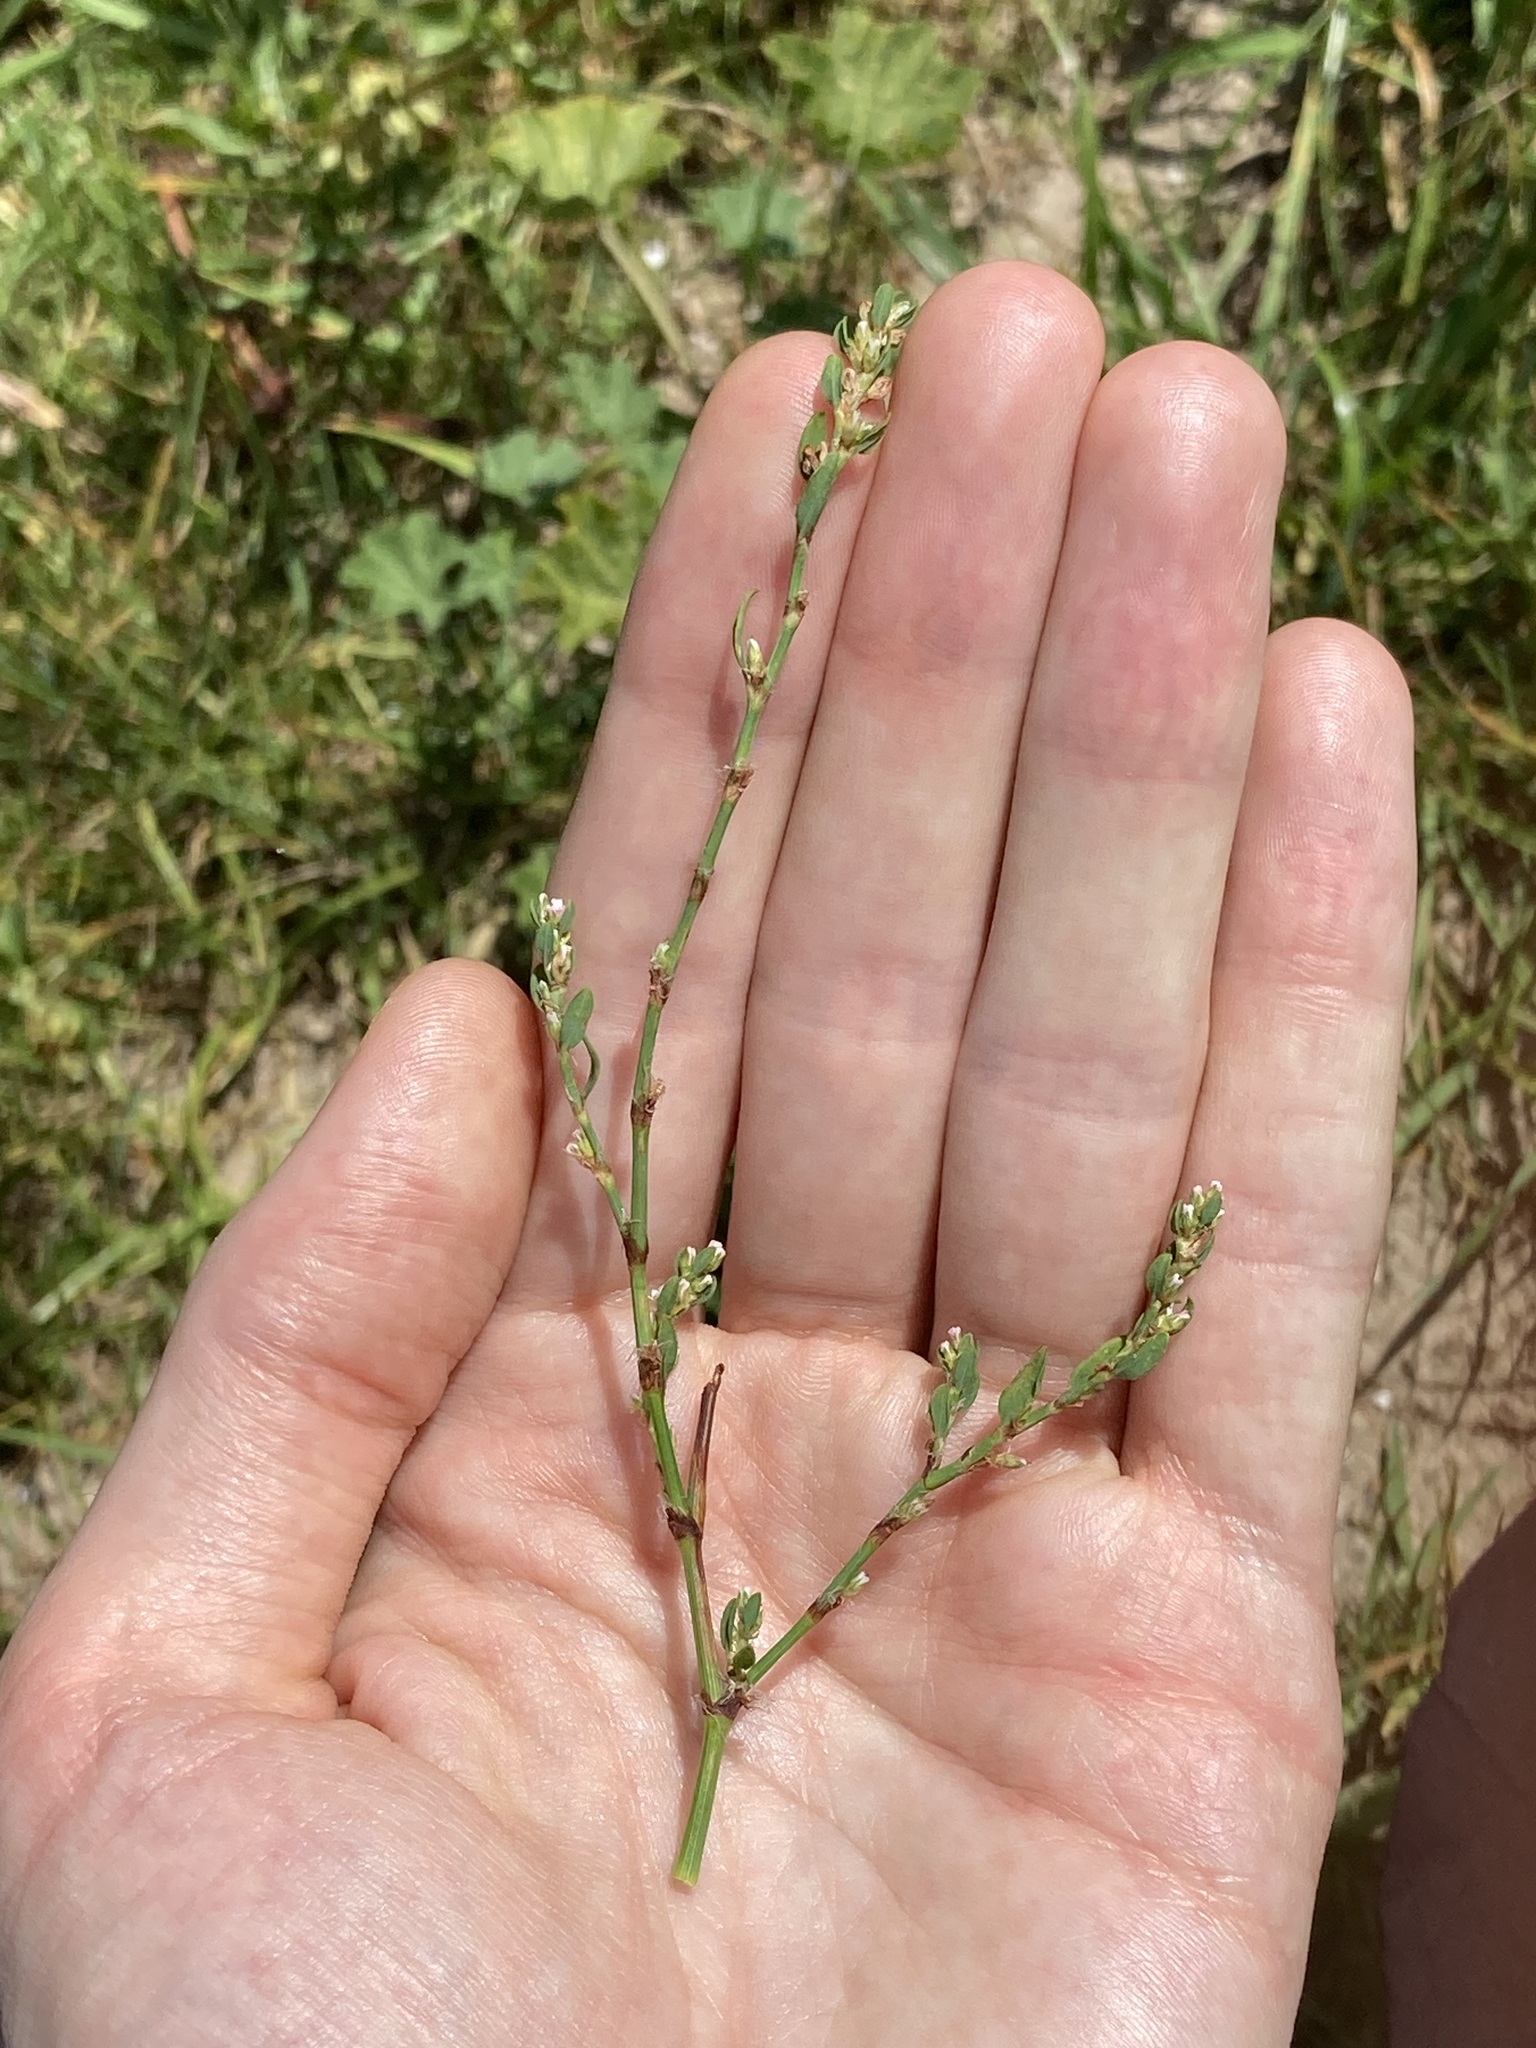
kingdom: Plantae
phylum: Tracheophyta
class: Magnoliopsida
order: Caryophyllales
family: Polygonaceae
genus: Polygonum
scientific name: Polygonum aviculare
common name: Prostrate knotweed
